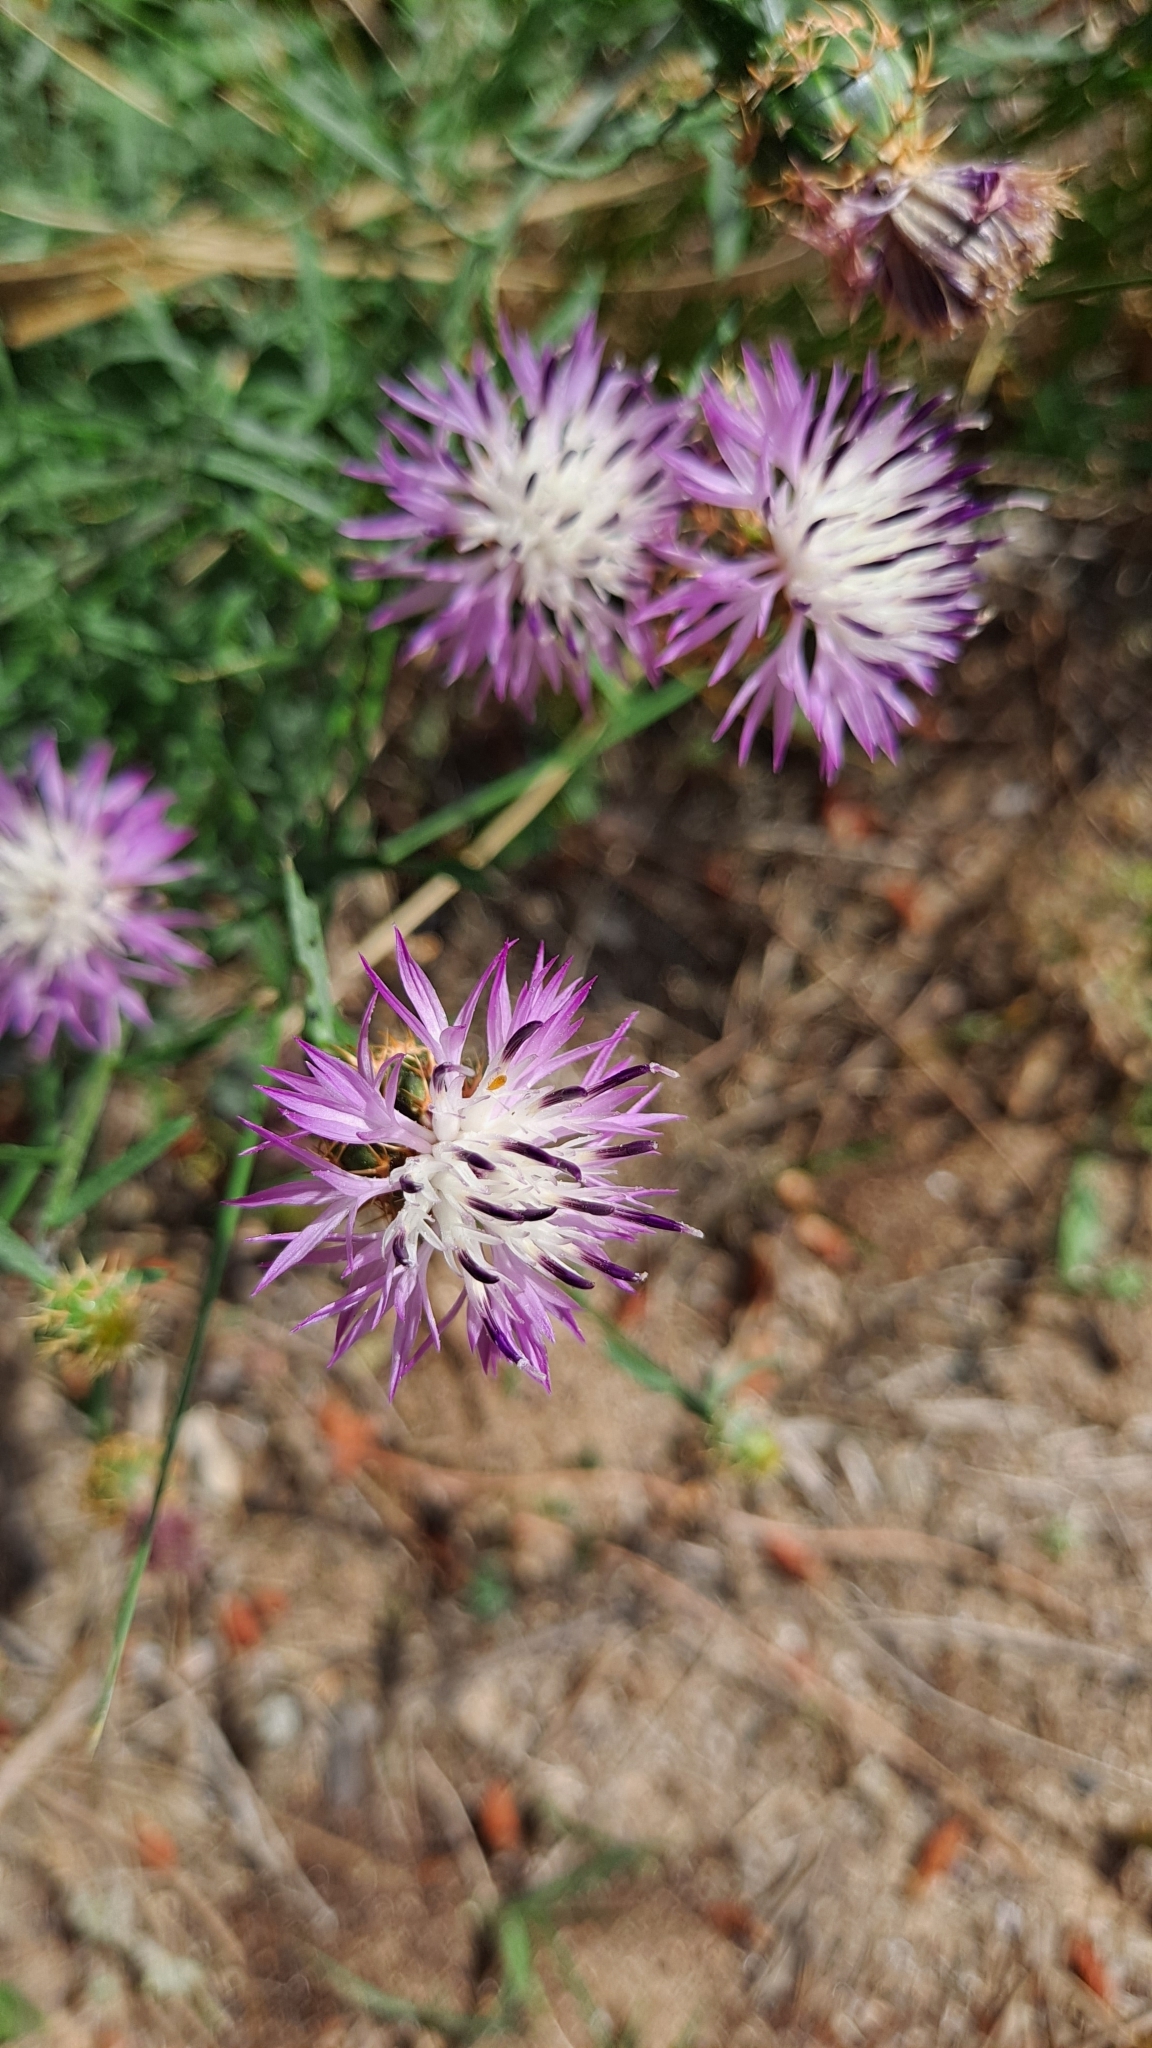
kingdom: Plantae
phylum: Tracheophyta
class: Magnoliopsida
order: Asterales
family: Asteraceae
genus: Centaurea
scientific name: Centaurea aspera
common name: Rough star-thistle
